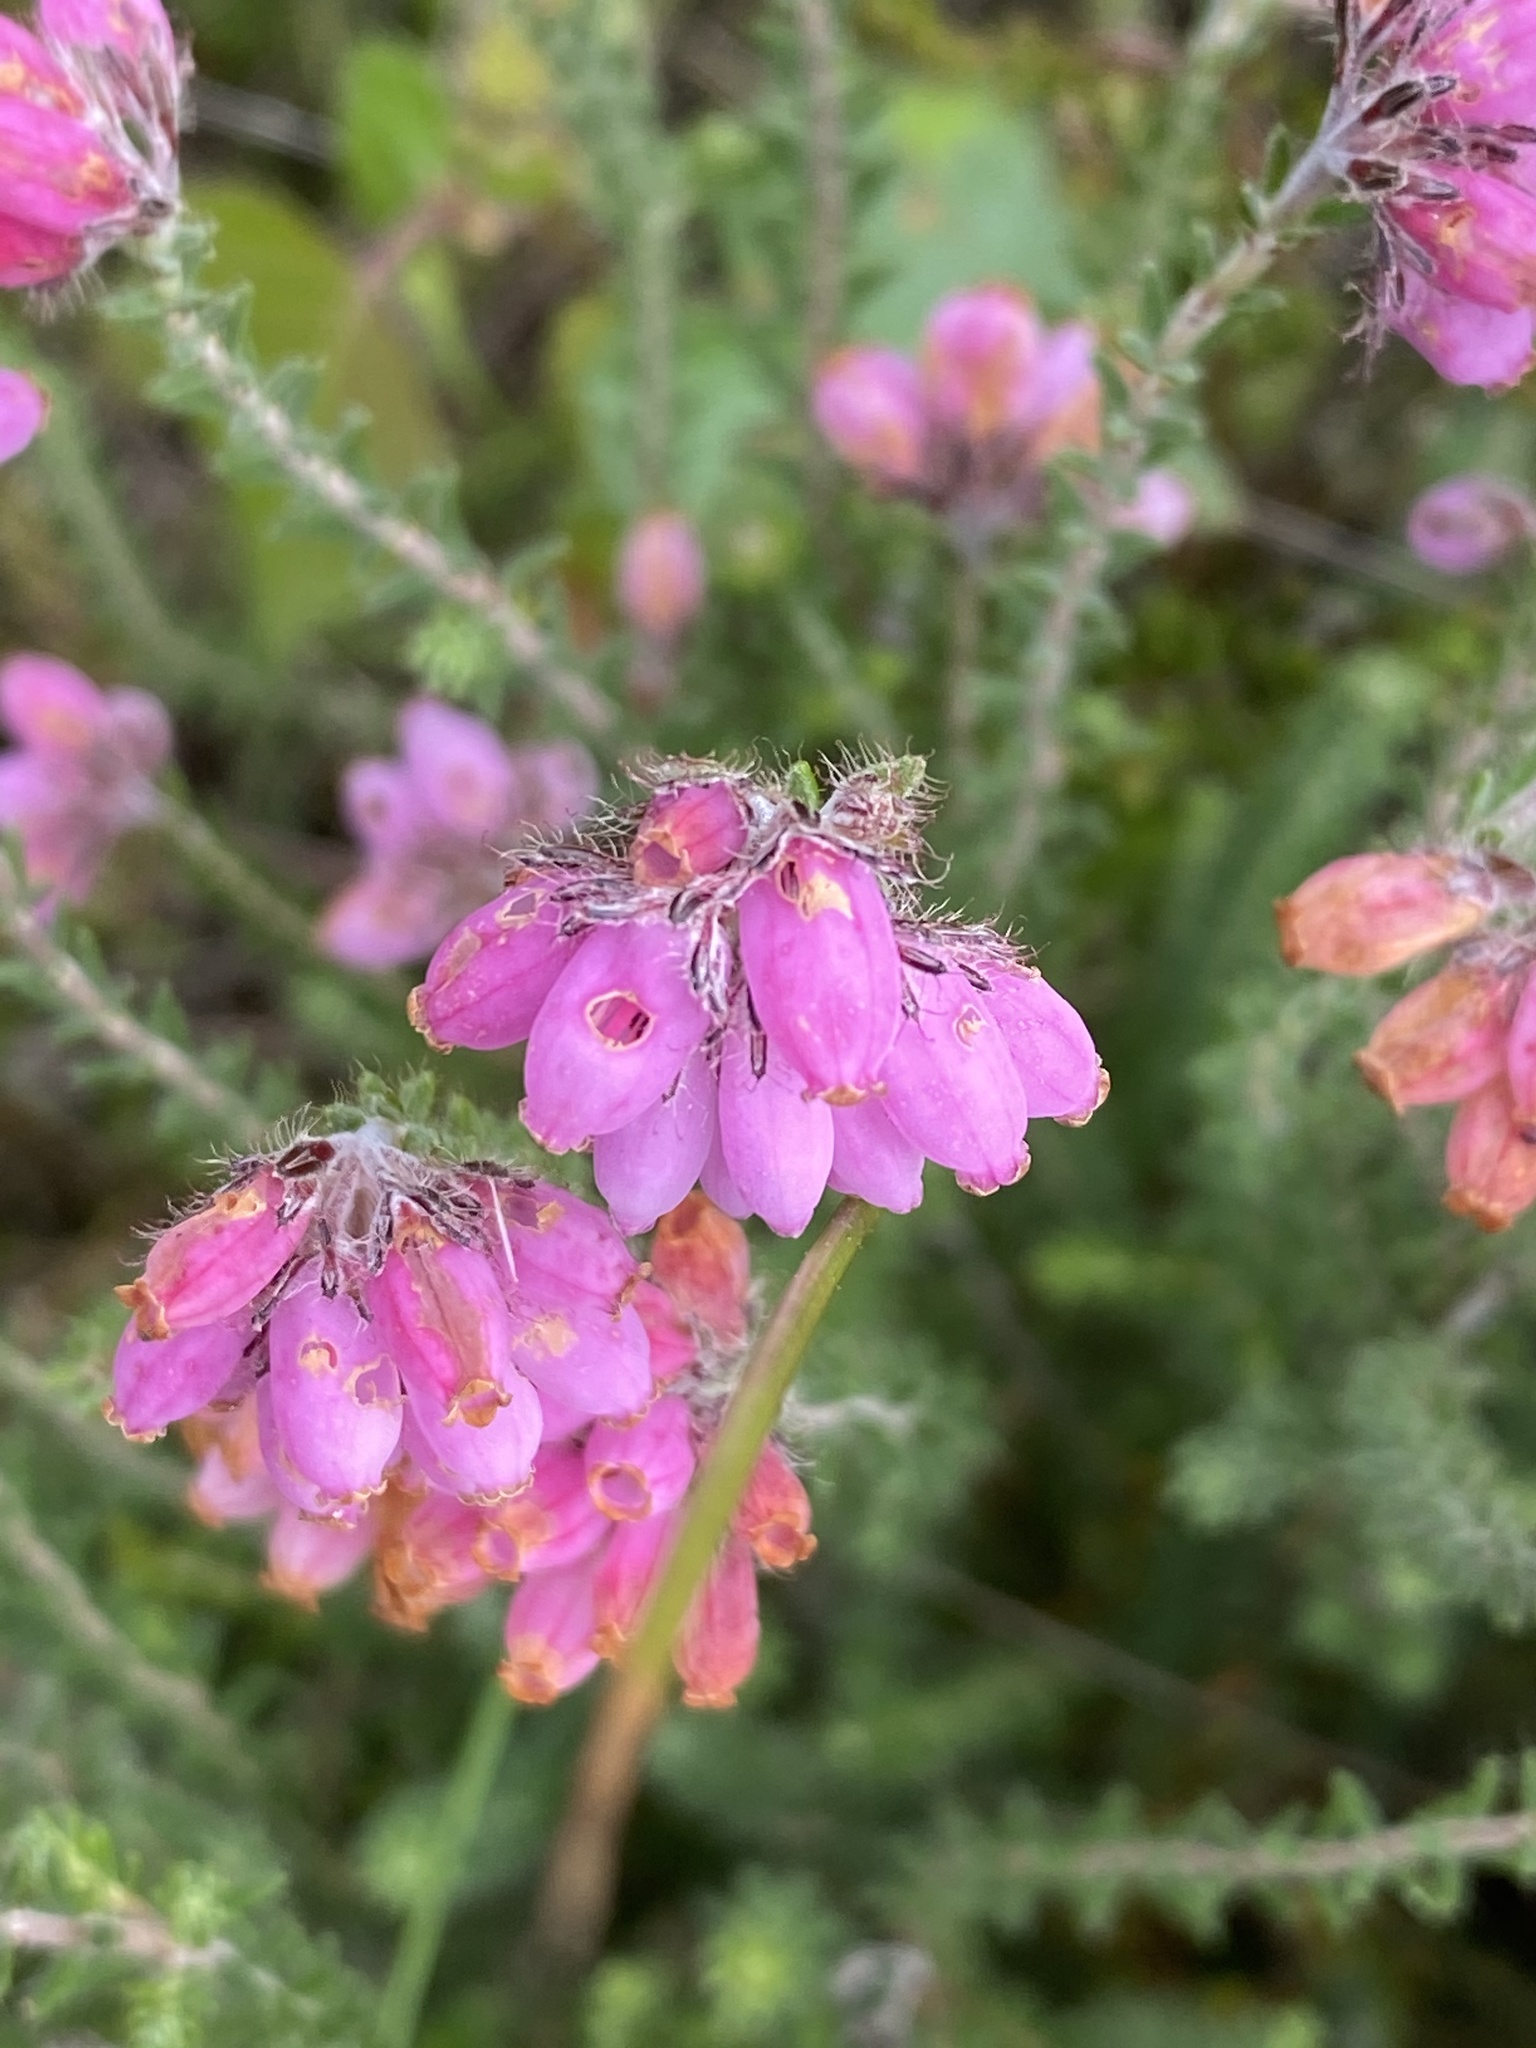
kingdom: Plantae
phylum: Tracheophyta
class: Magnoliopsida
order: Ericales
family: Ericaceae
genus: Erica
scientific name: Erica tetralix
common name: Cross-leaved heath
